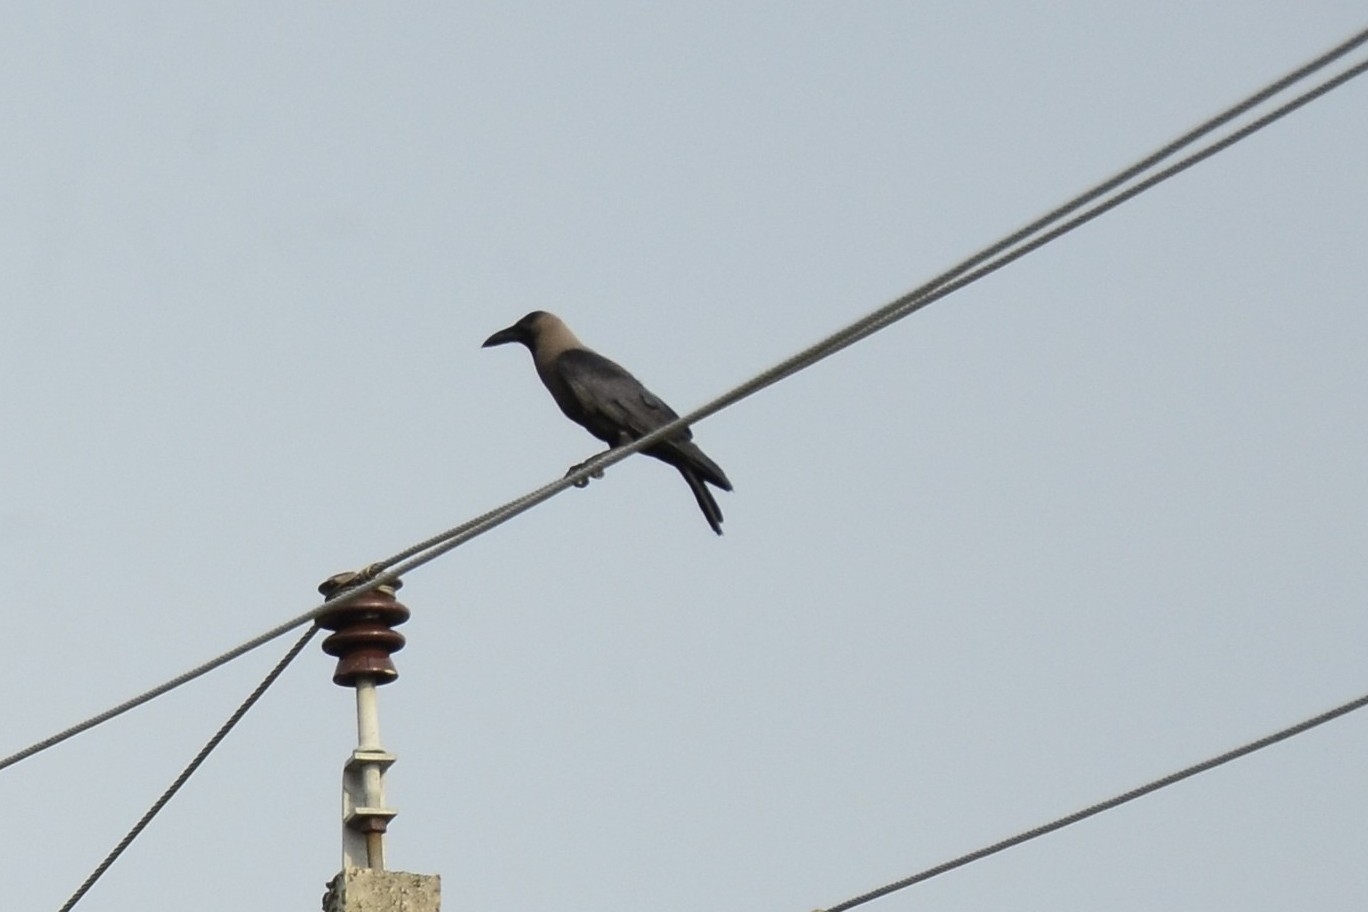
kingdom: Animalia
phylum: Chordata
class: Aves
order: Passeriformes
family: Corvidae
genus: Corvus
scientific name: Corvus splendens
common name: House crow
